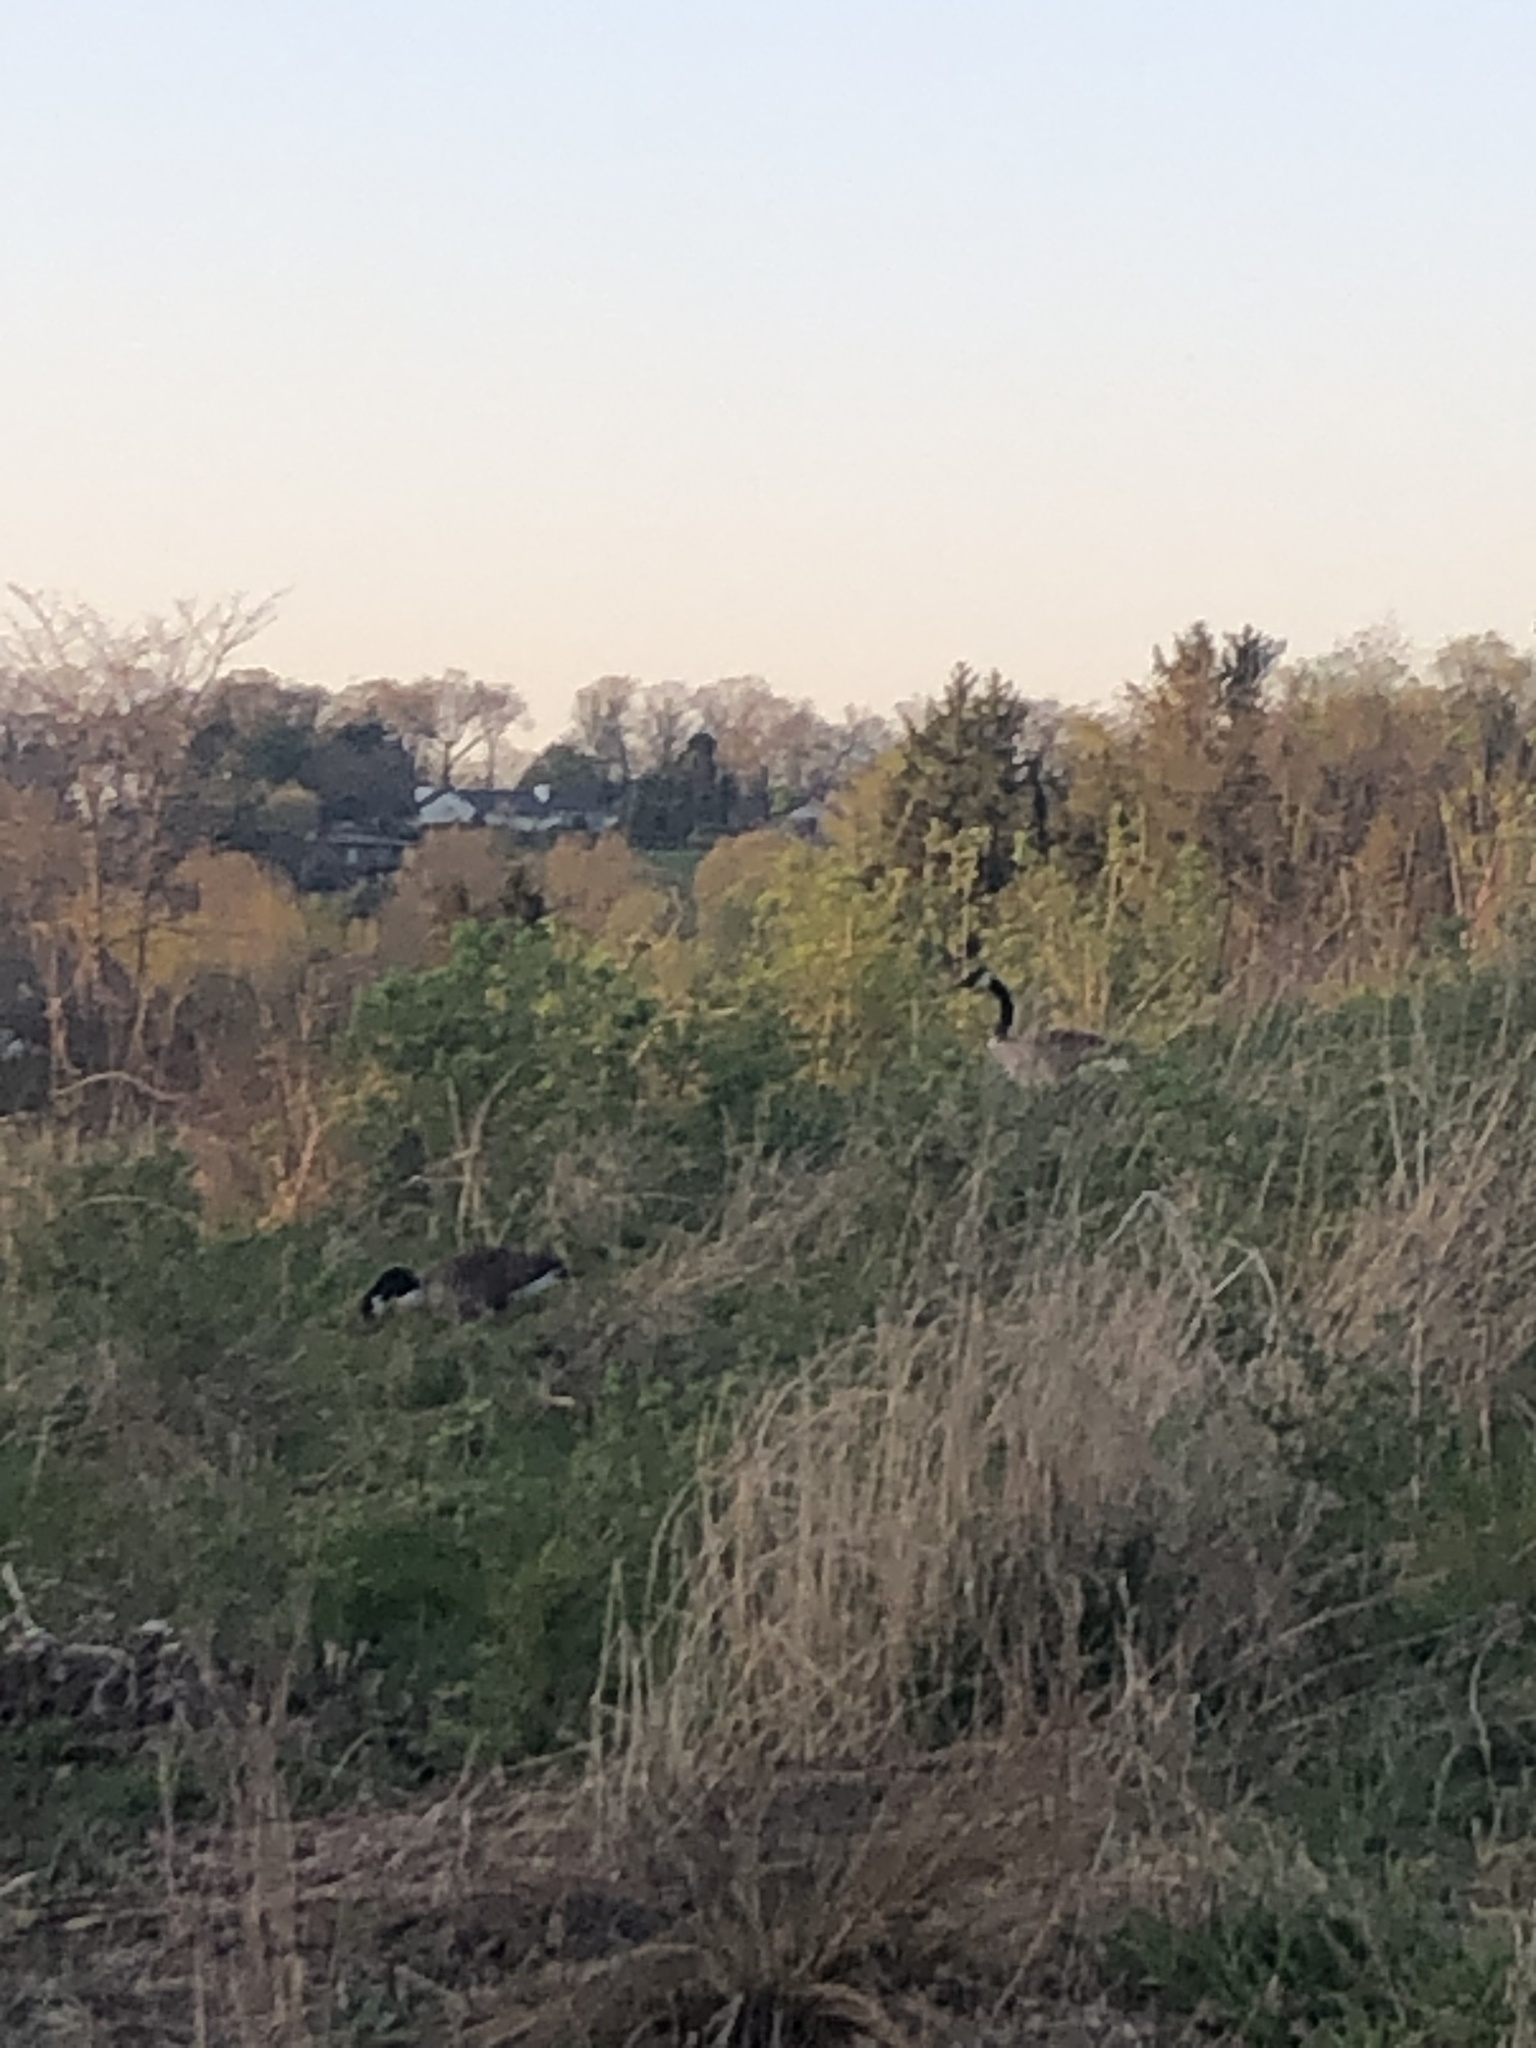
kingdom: Animalia
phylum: Chordata
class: Aves
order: Anseriformes
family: Anatidae
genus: Branta
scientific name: Branta canadensis
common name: Canada goose
